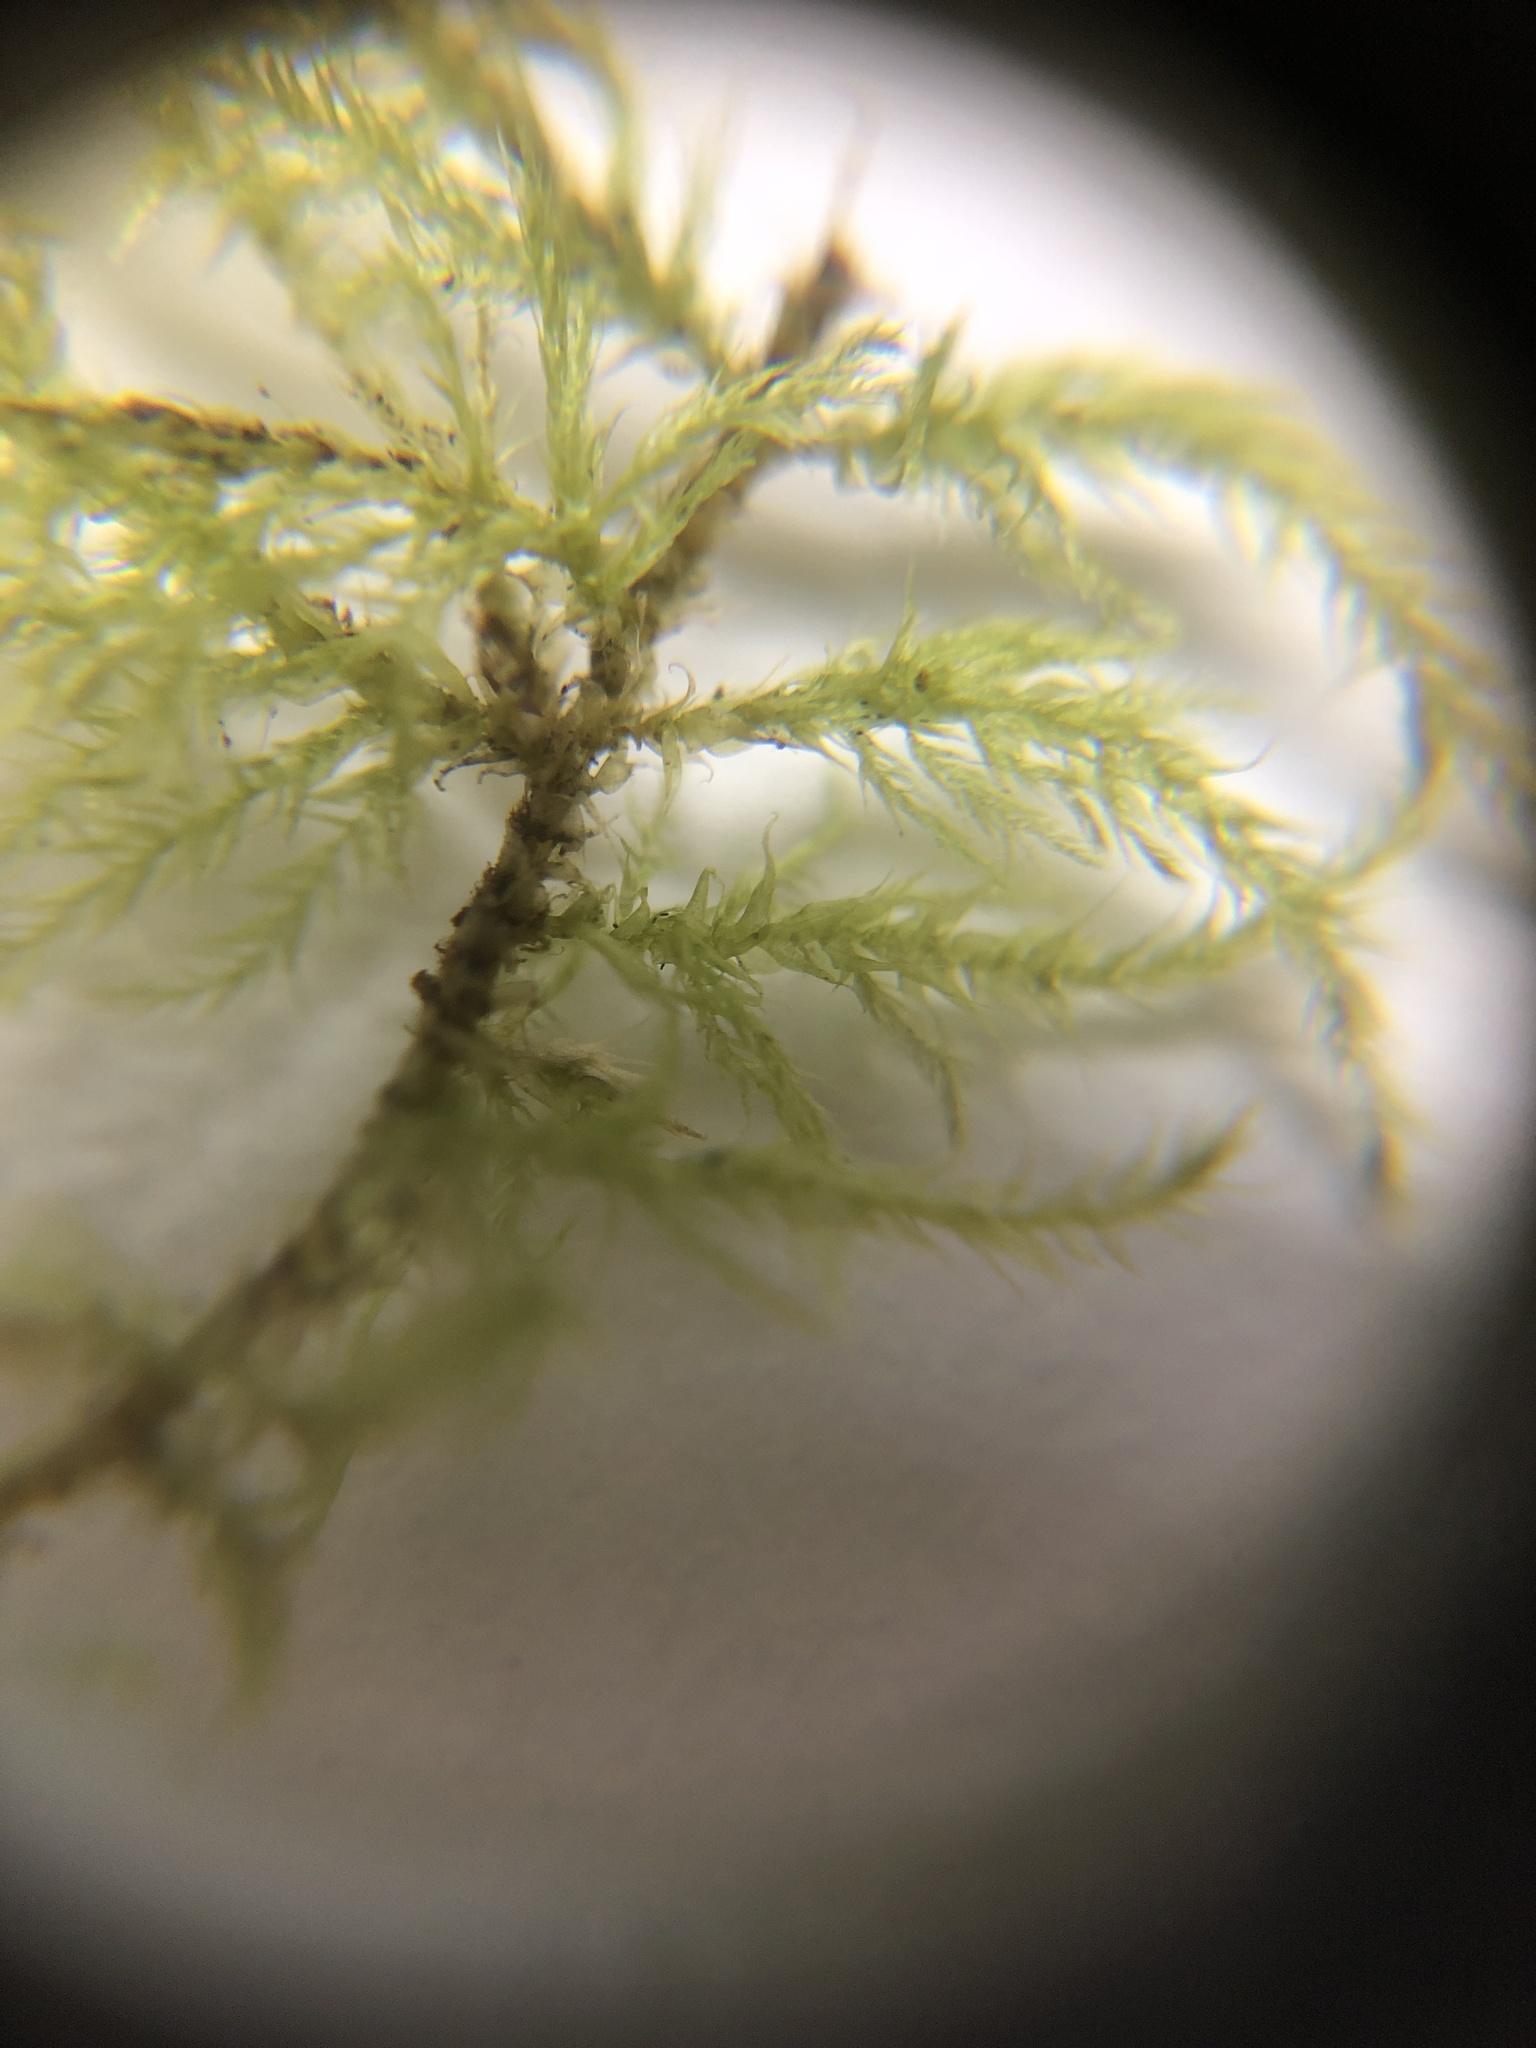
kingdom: Plantae
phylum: Bryophyta
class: Bryopsida
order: Hypnales
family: Brachytheciaceae
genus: Kindbergia
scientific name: Kindbergia praelonga
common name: Slender beaked moss
